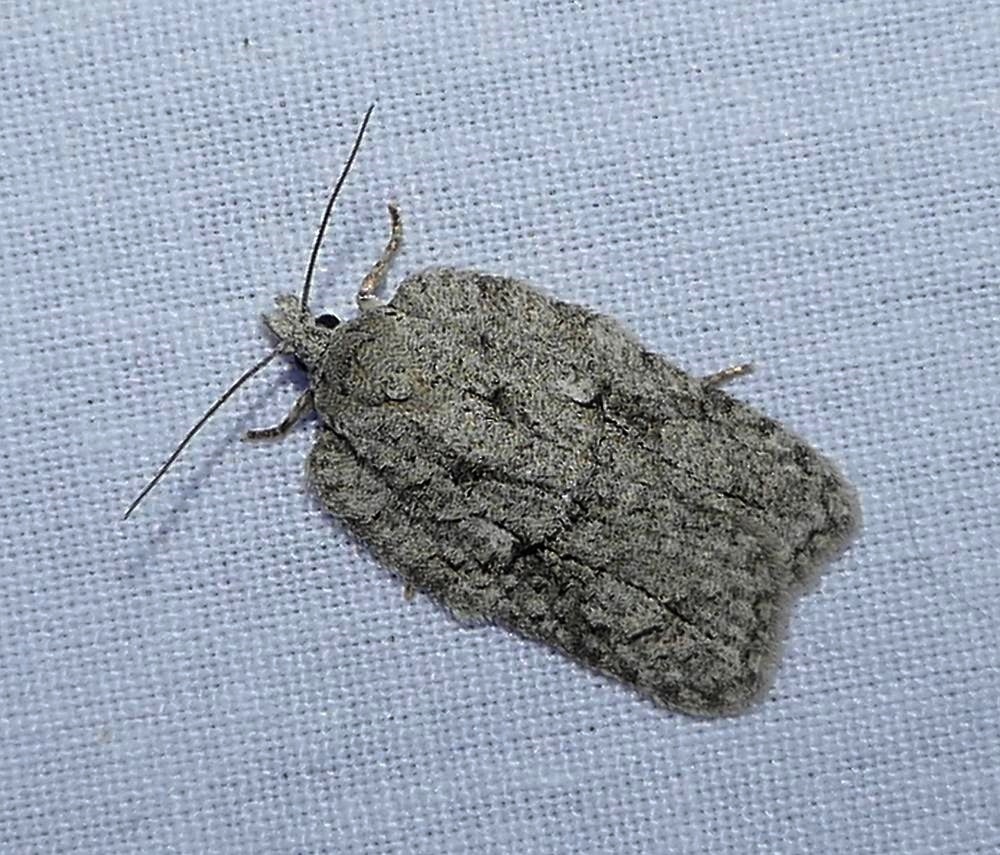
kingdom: Animalia
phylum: Arthropoda
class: Insecta
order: Lepidoptera
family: Tortricidae
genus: Acleris
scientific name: Acleris nigrolinea
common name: Black-lined acleris
